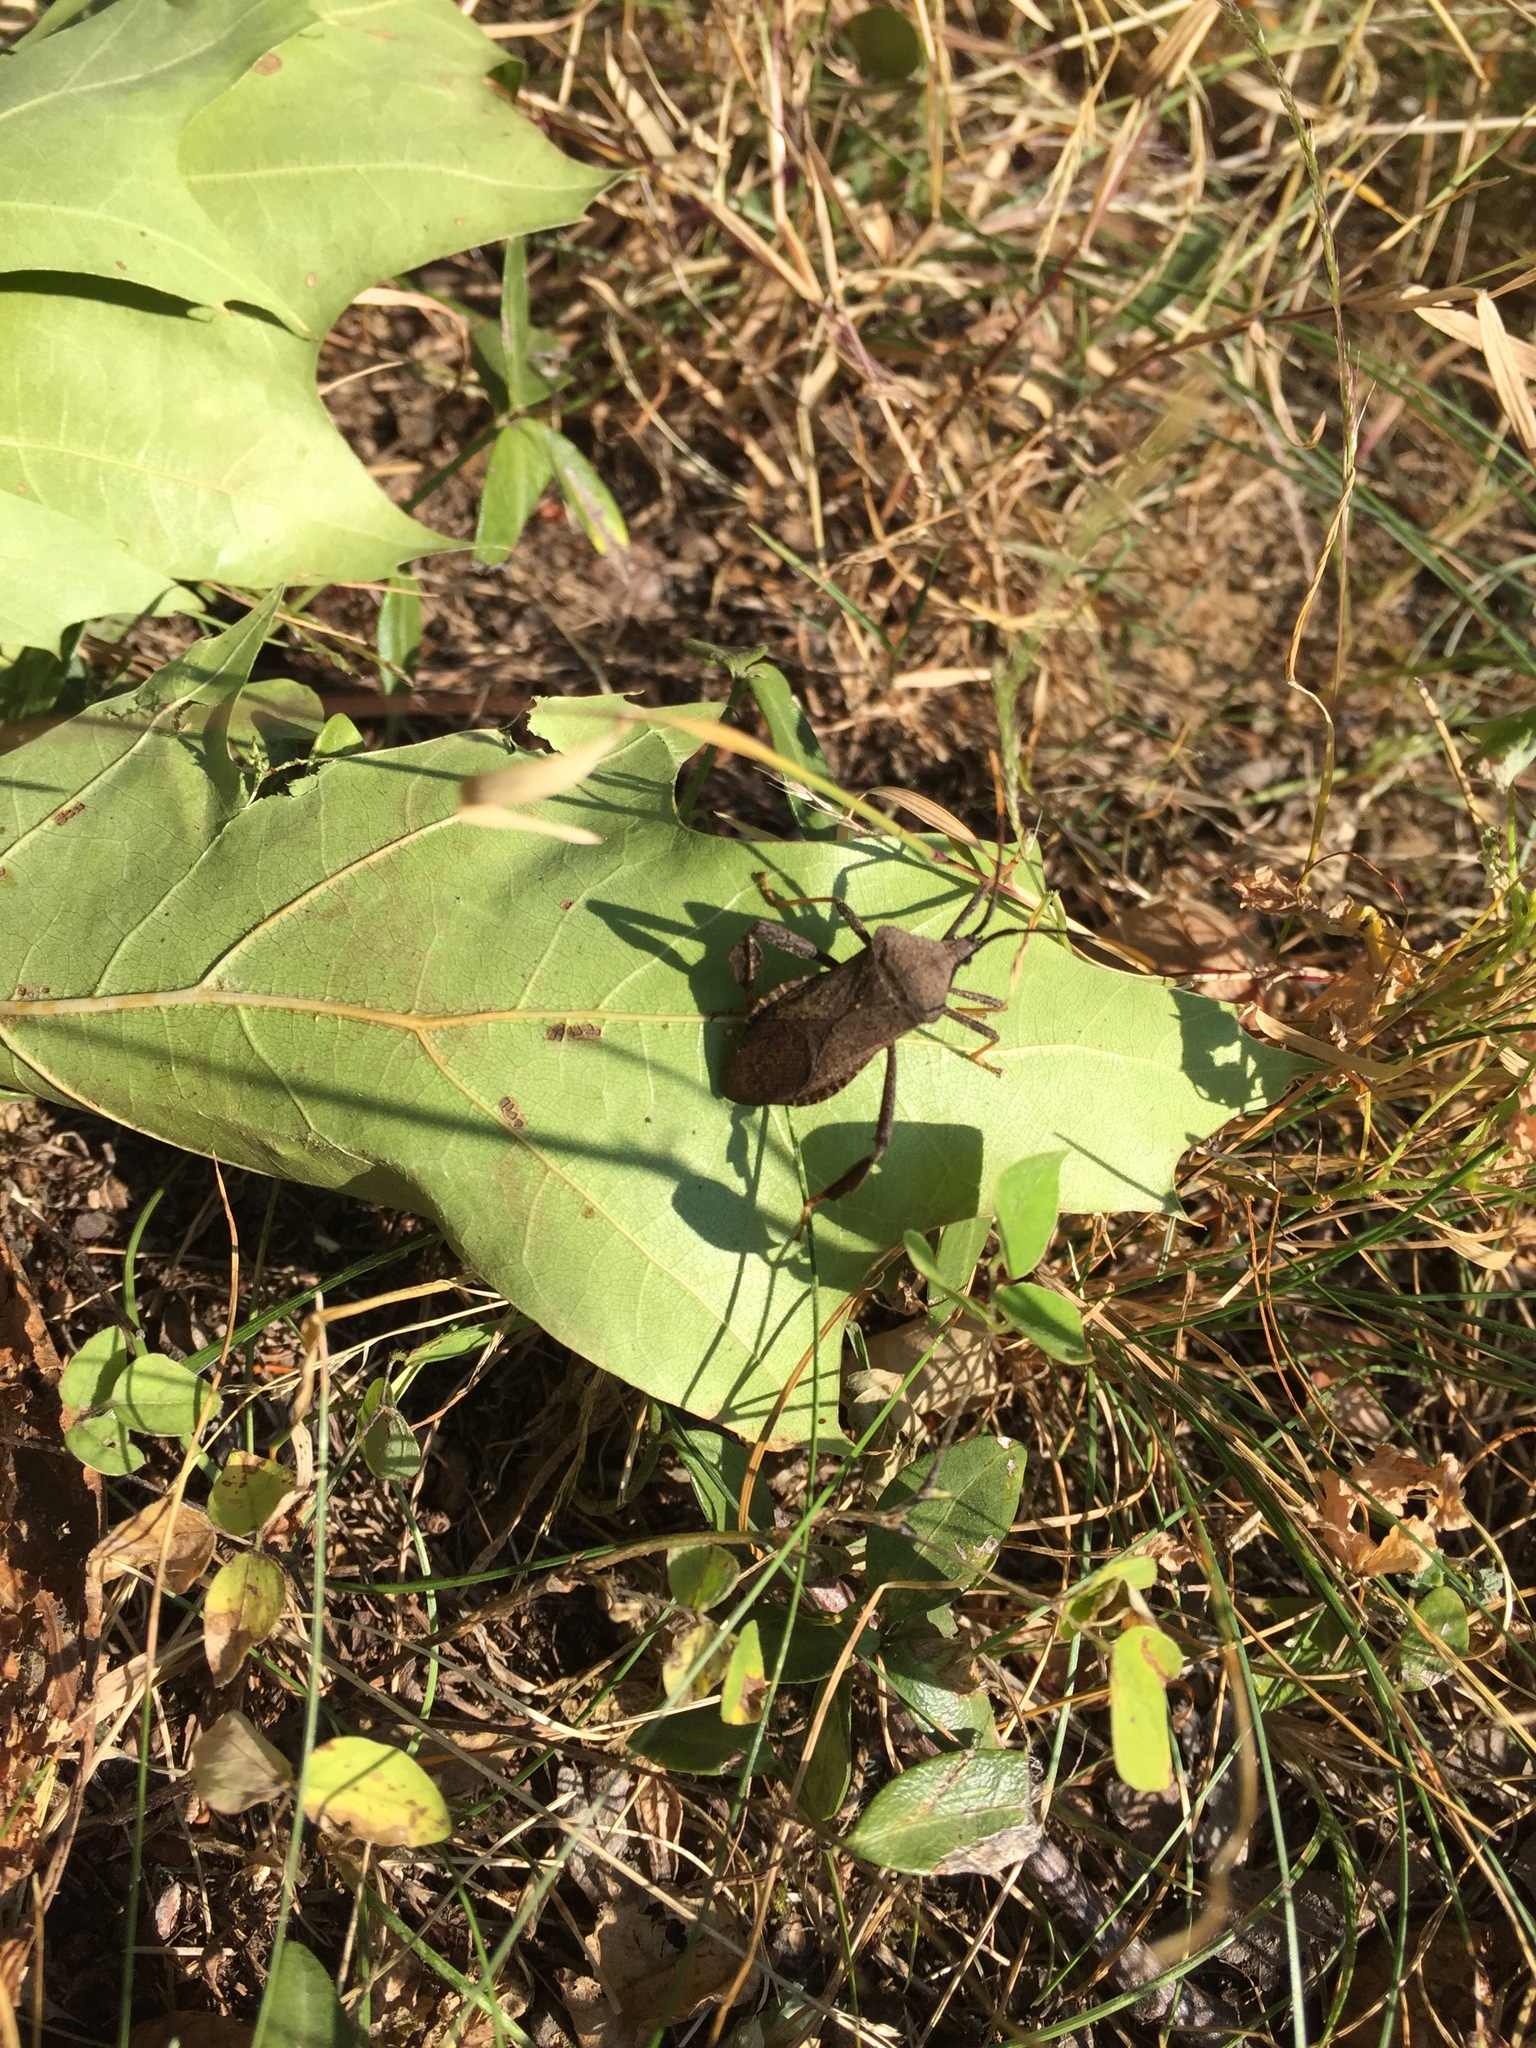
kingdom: Animalia
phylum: Arthropoda
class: Insecta
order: Hemiptera
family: Coreidae
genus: Acanthocephala
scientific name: Acanthocephala terminalis
